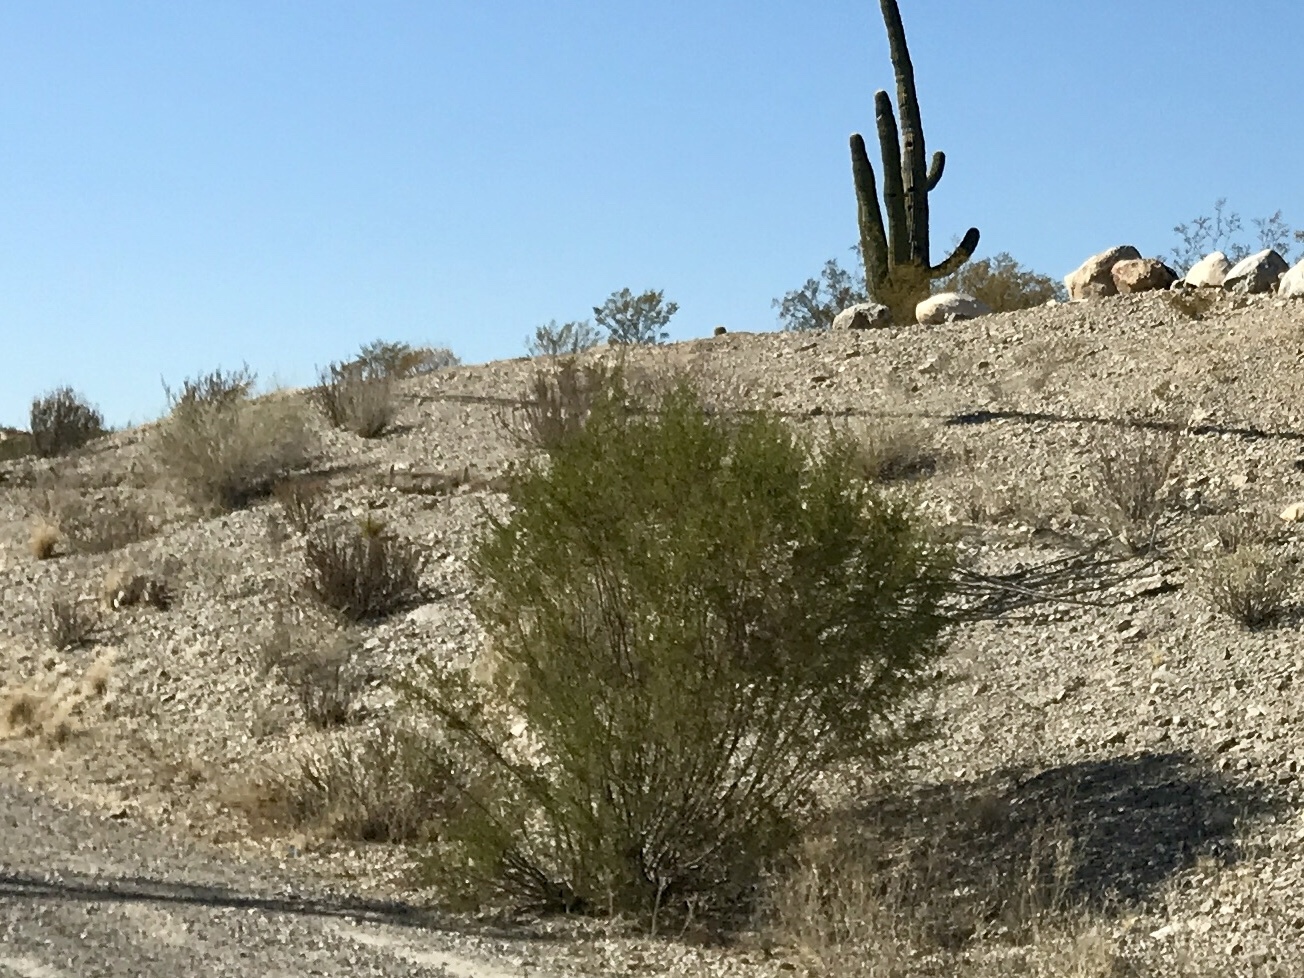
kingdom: Plantae
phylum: Tracheophyta
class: Magnoliopsida
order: Zygophyllales
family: Zygophyllaceae
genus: Larrea
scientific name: Larrea tridentata
